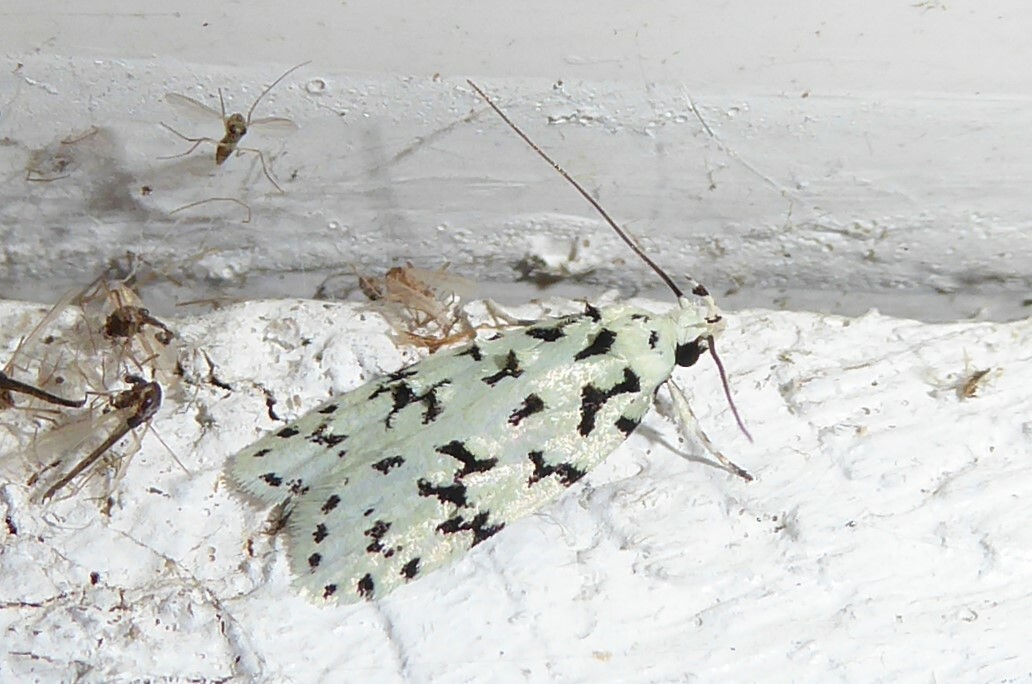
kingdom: Animalia
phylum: Arthropoda
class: Insecta
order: Lepidoptera
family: Oecophoridae
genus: Izatha
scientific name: Izatha huttoni
